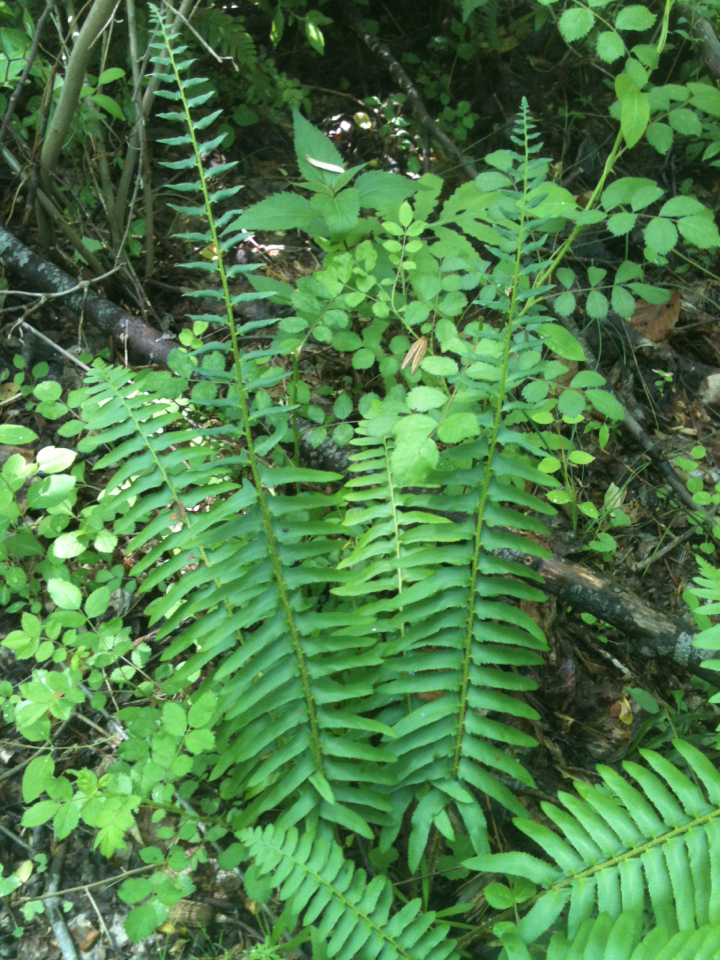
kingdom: Plantae
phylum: Tracheophyta
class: Polypodiopsida
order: Polypodiales
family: Dryopteridaceae
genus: Polystichum
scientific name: Polystichum acrostichoides
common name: Christmas fern
